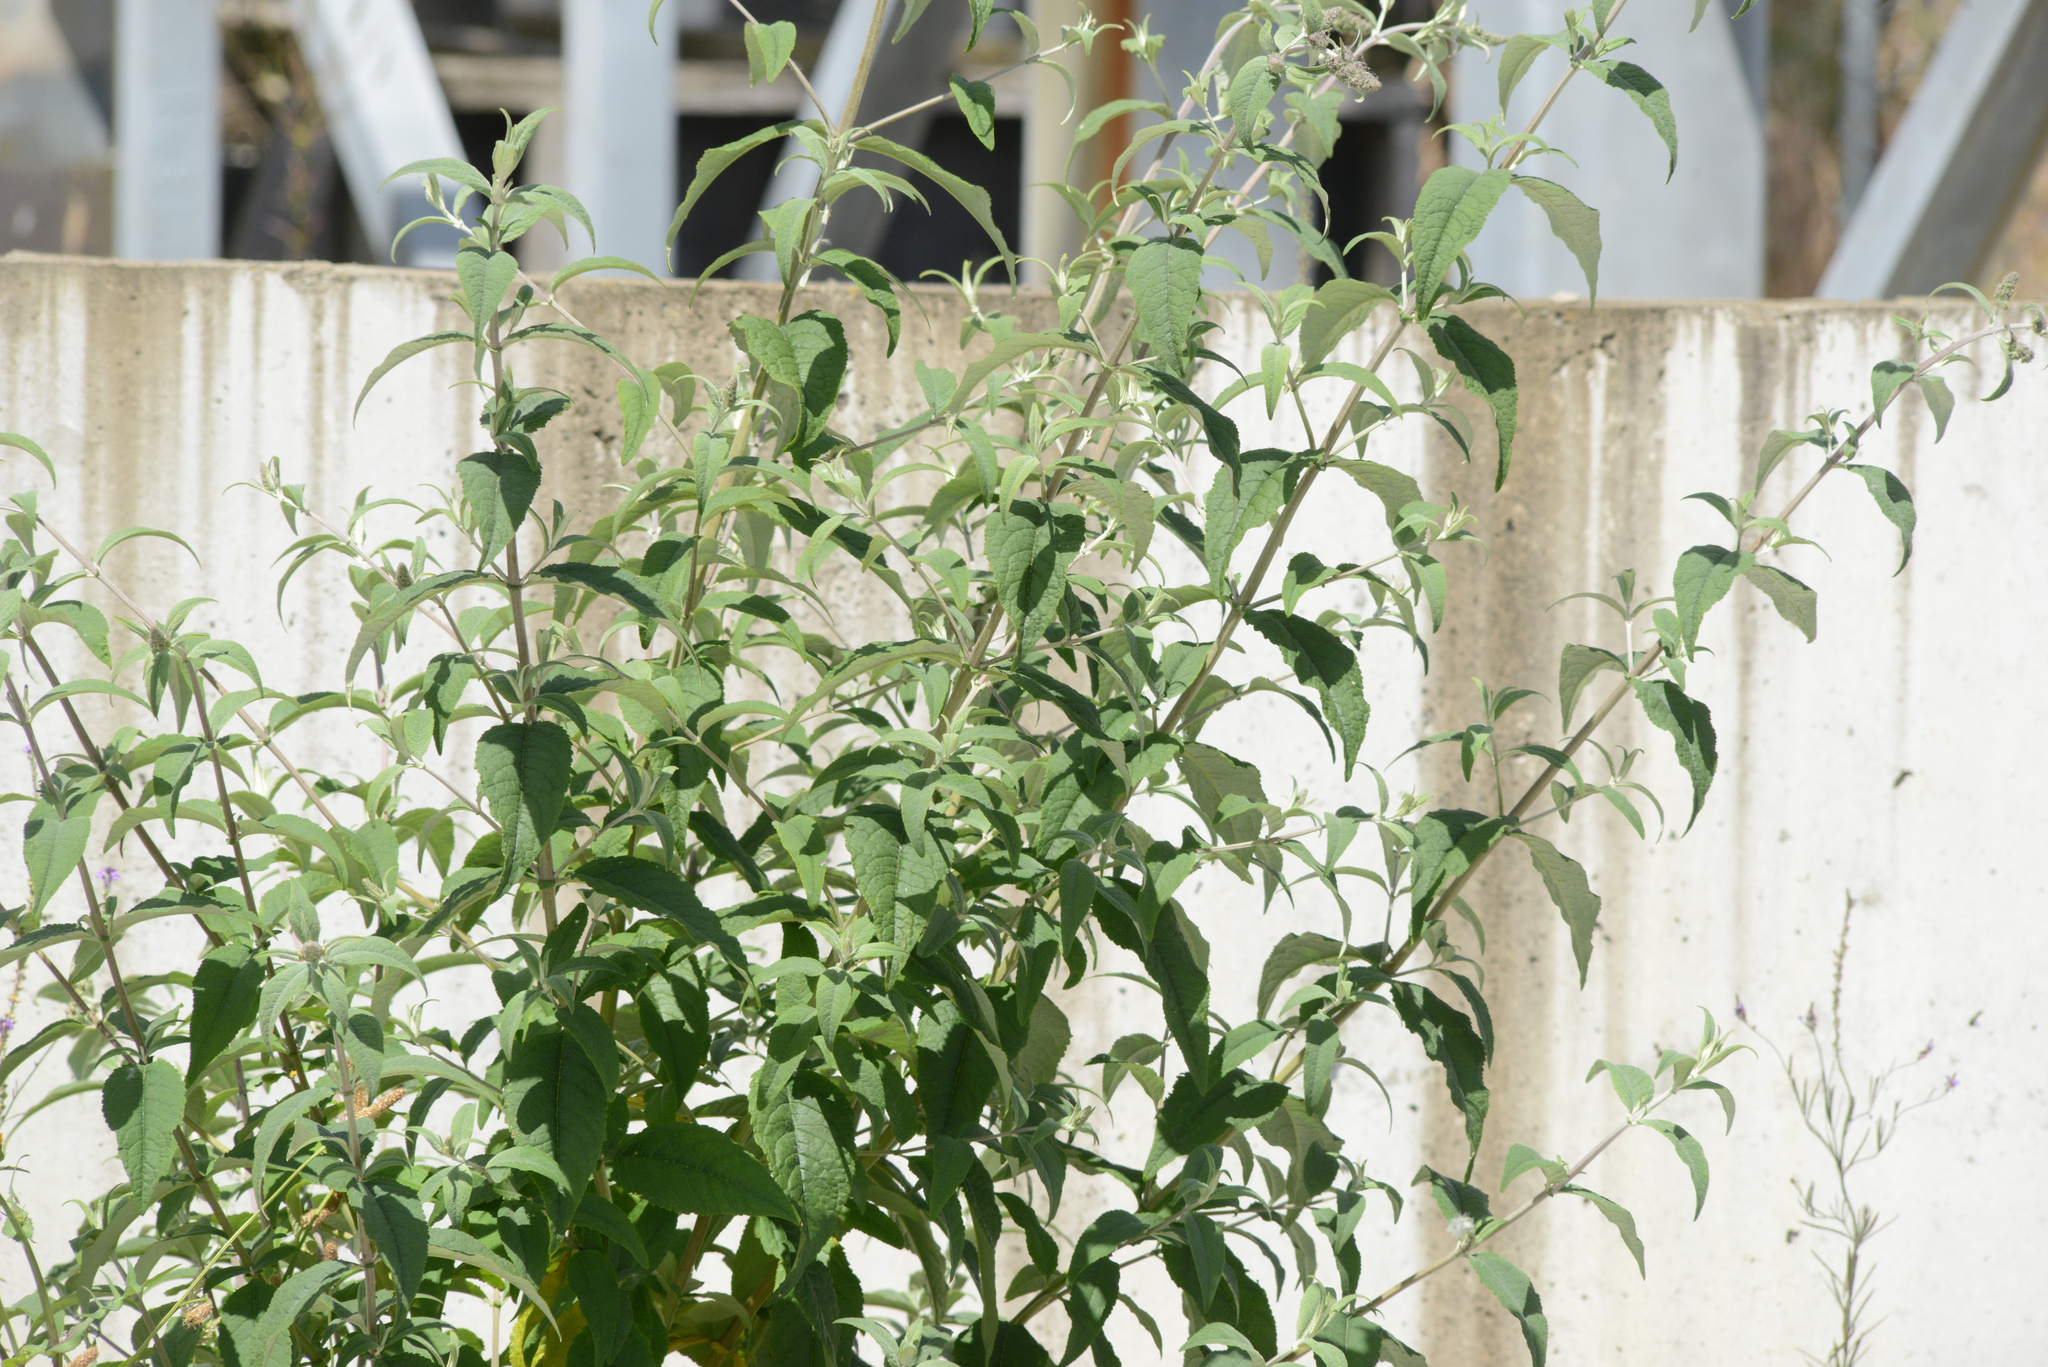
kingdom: Plantae
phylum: Tracheophyta
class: Magnoliopsida
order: Lamiales
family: Scrophulariaceae
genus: Buddleja
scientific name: Buddleja davidii
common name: Butterfly-bush
